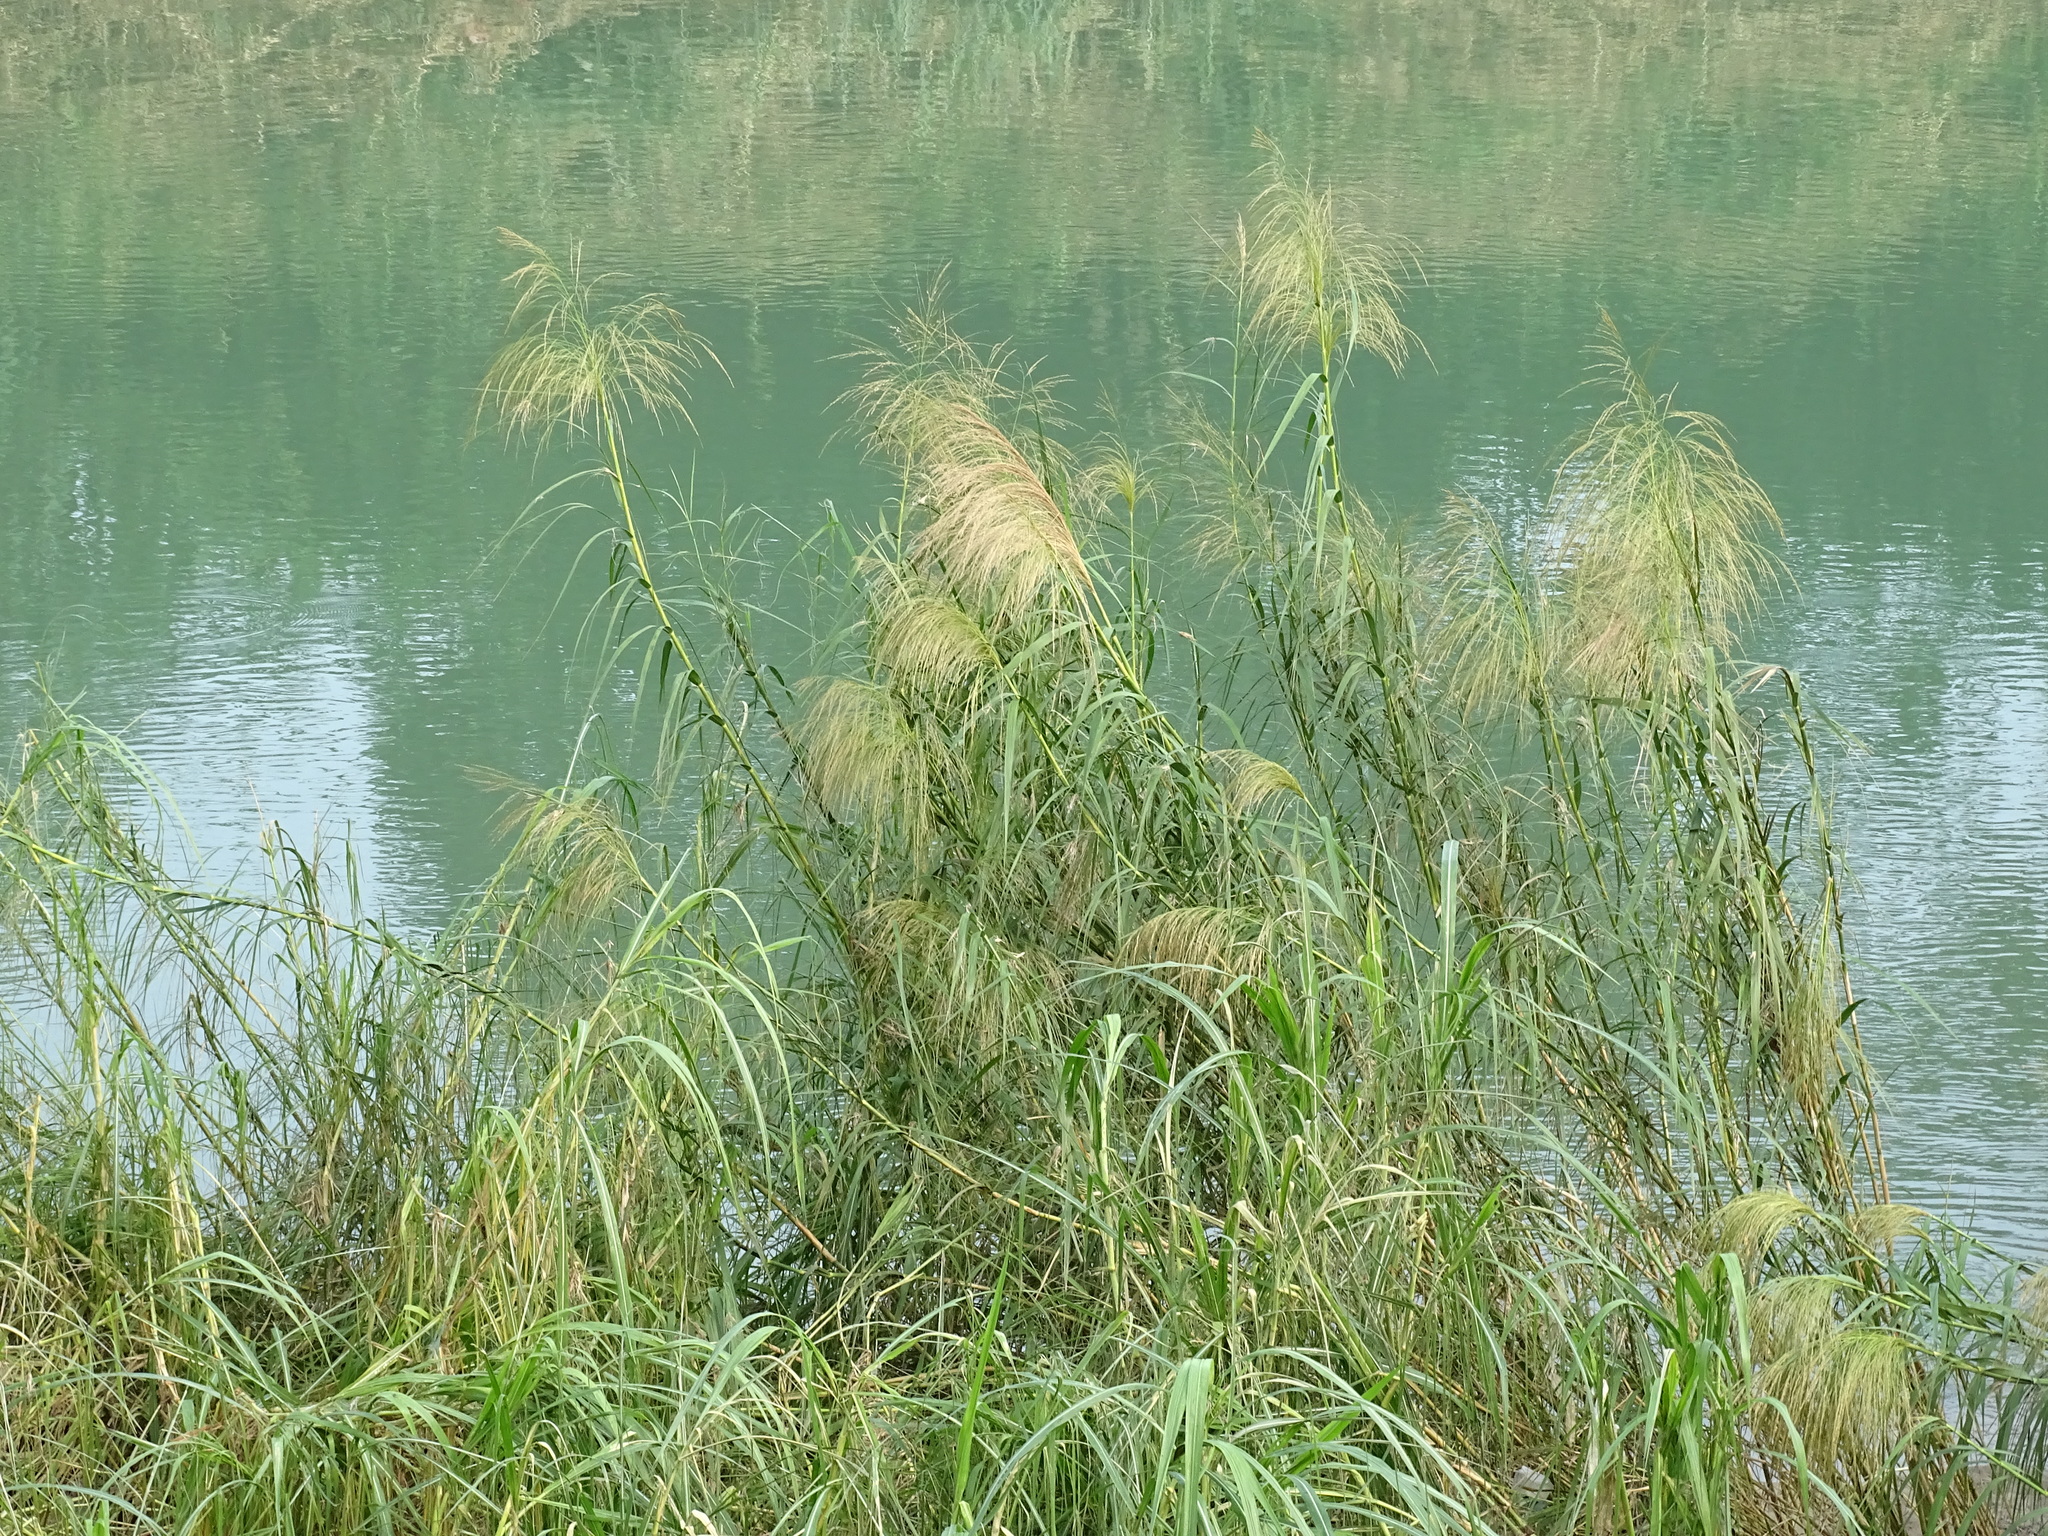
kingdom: Plantae
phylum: Tracheophyta
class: Liliopsida
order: Poales
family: Poaceae
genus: Phragmites
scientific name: Phragmites karka
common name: Tropical reed
